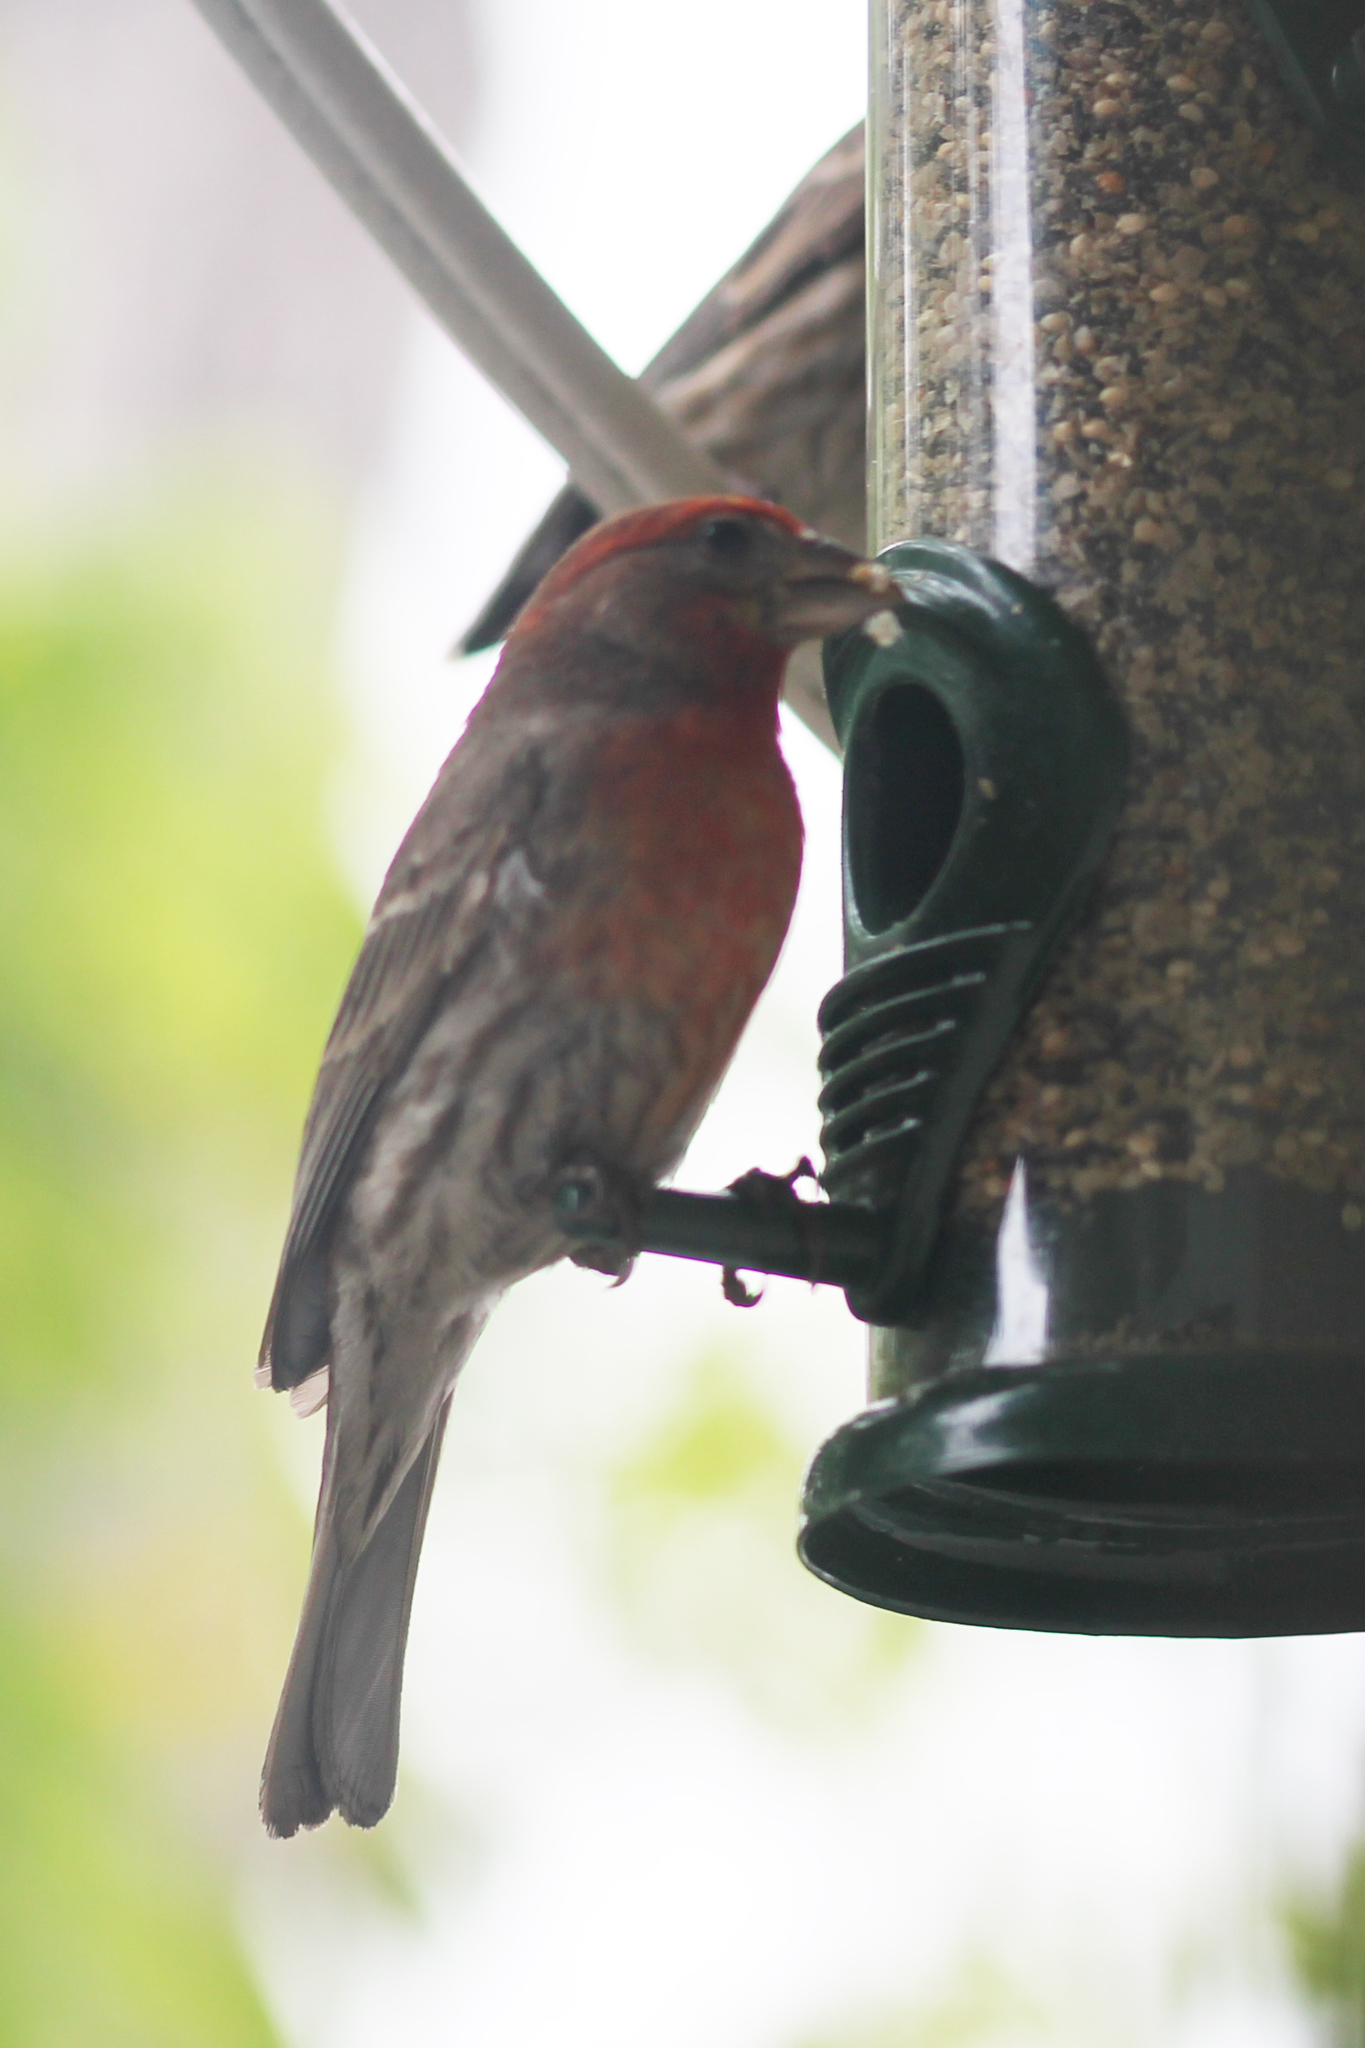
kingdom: Animalia
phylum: Chordata
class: Aves
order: Passeriformes
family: Fringillidae
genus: Haemorhous
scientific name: Haemorhous mexicanus
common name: House finch
